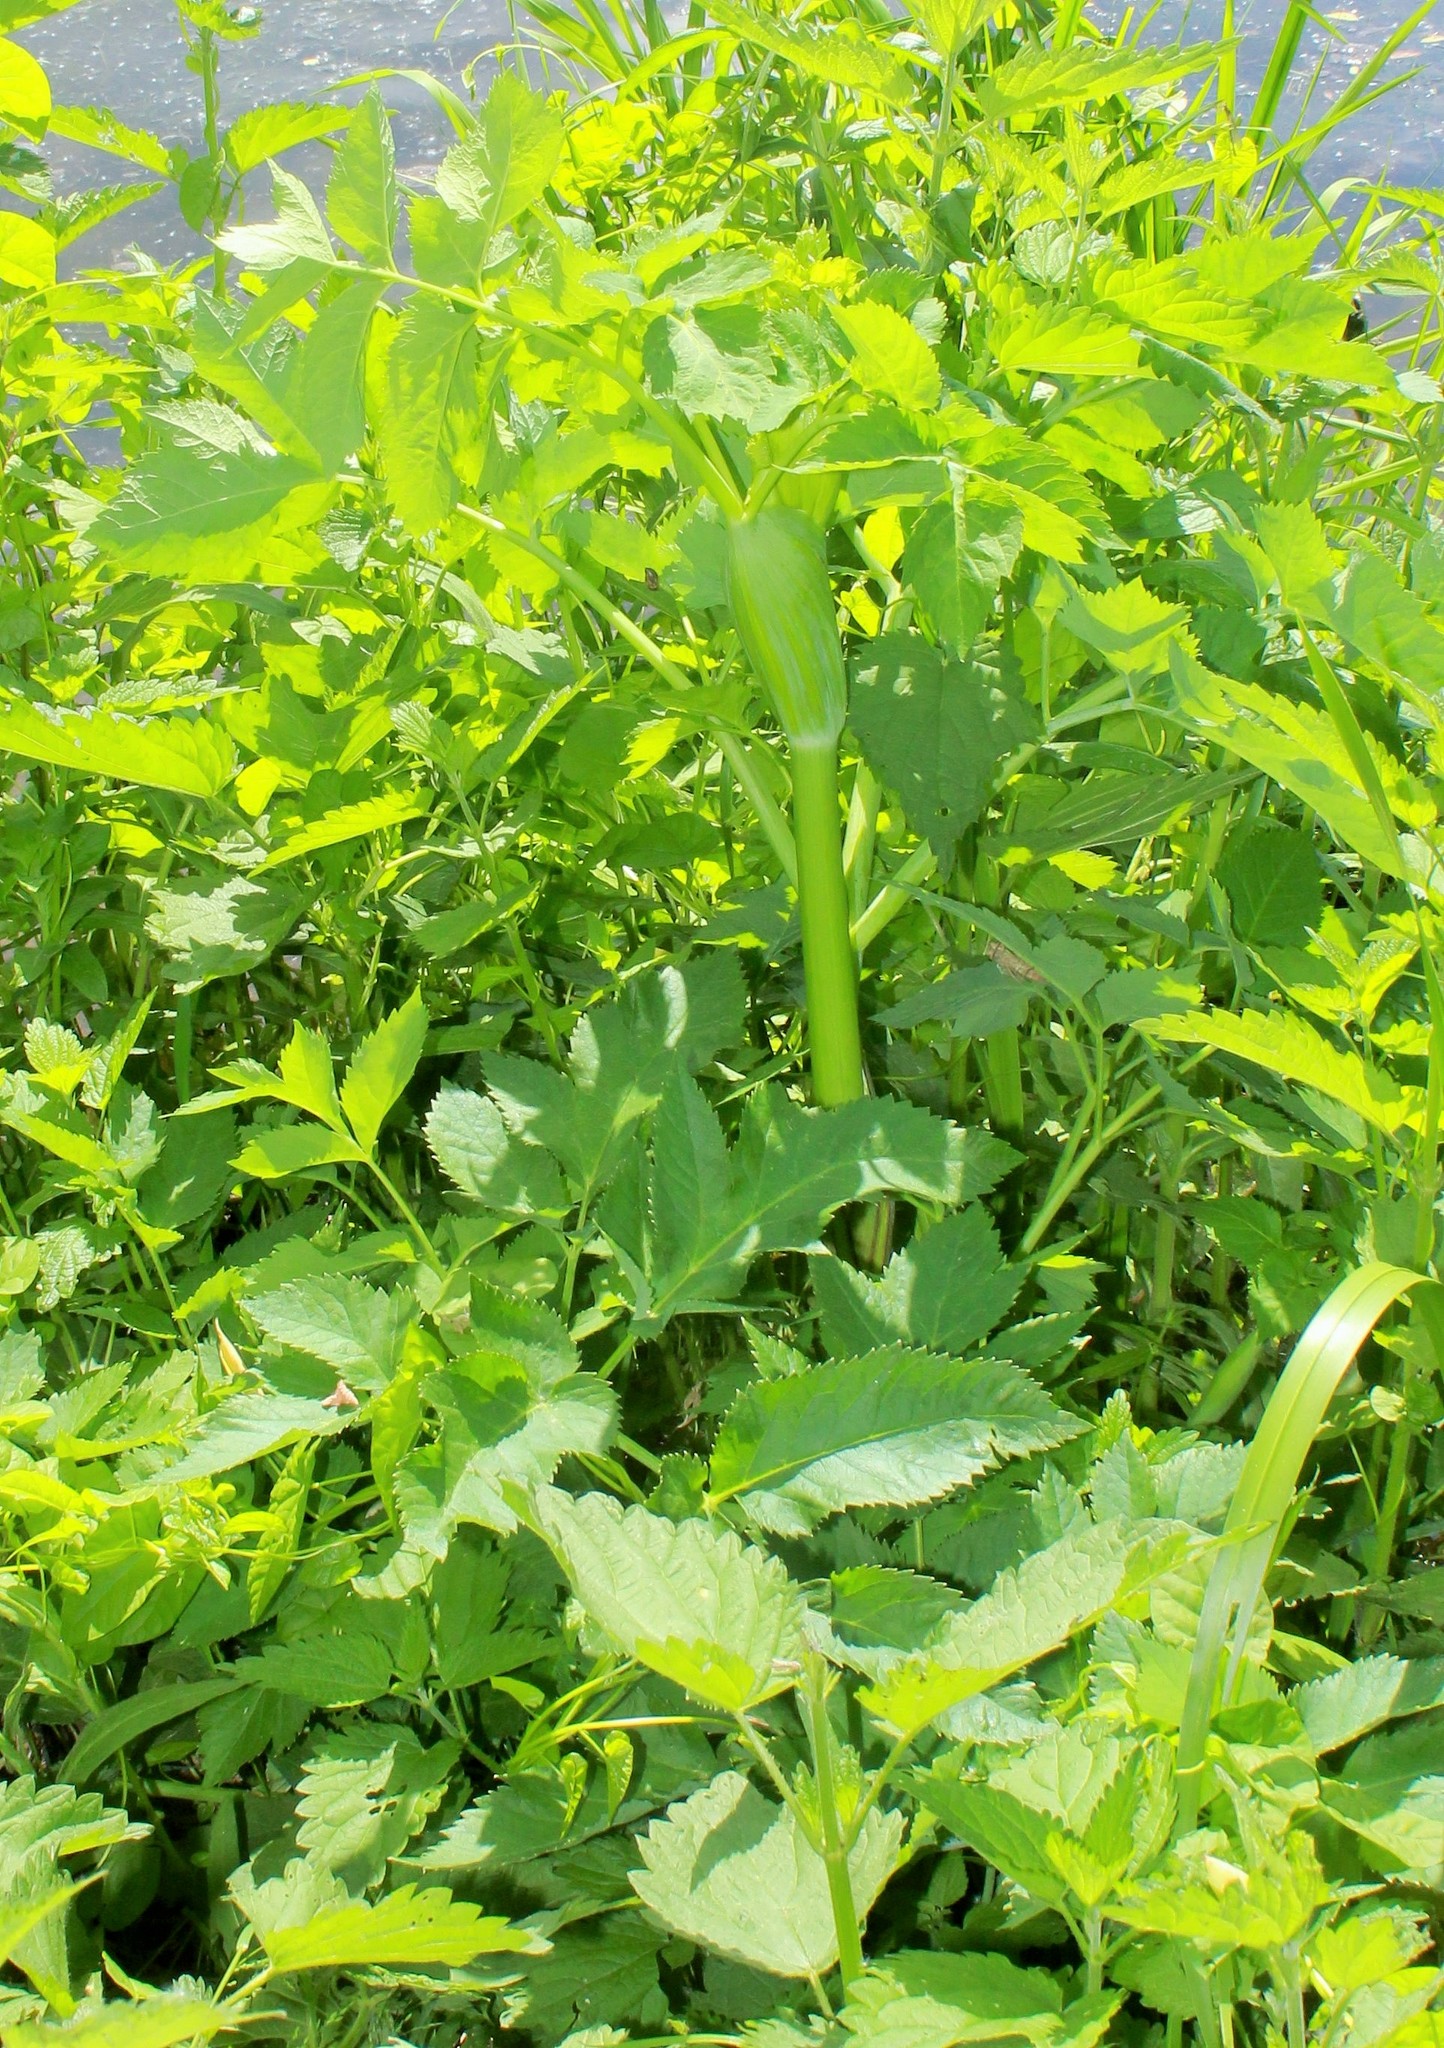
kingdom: Plantae
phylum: Tracheophyta
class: Magnoliopsida
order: Apiales
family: Apiaceae
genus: Angelica
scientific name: Angelica archangelica
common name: Garden angelica
